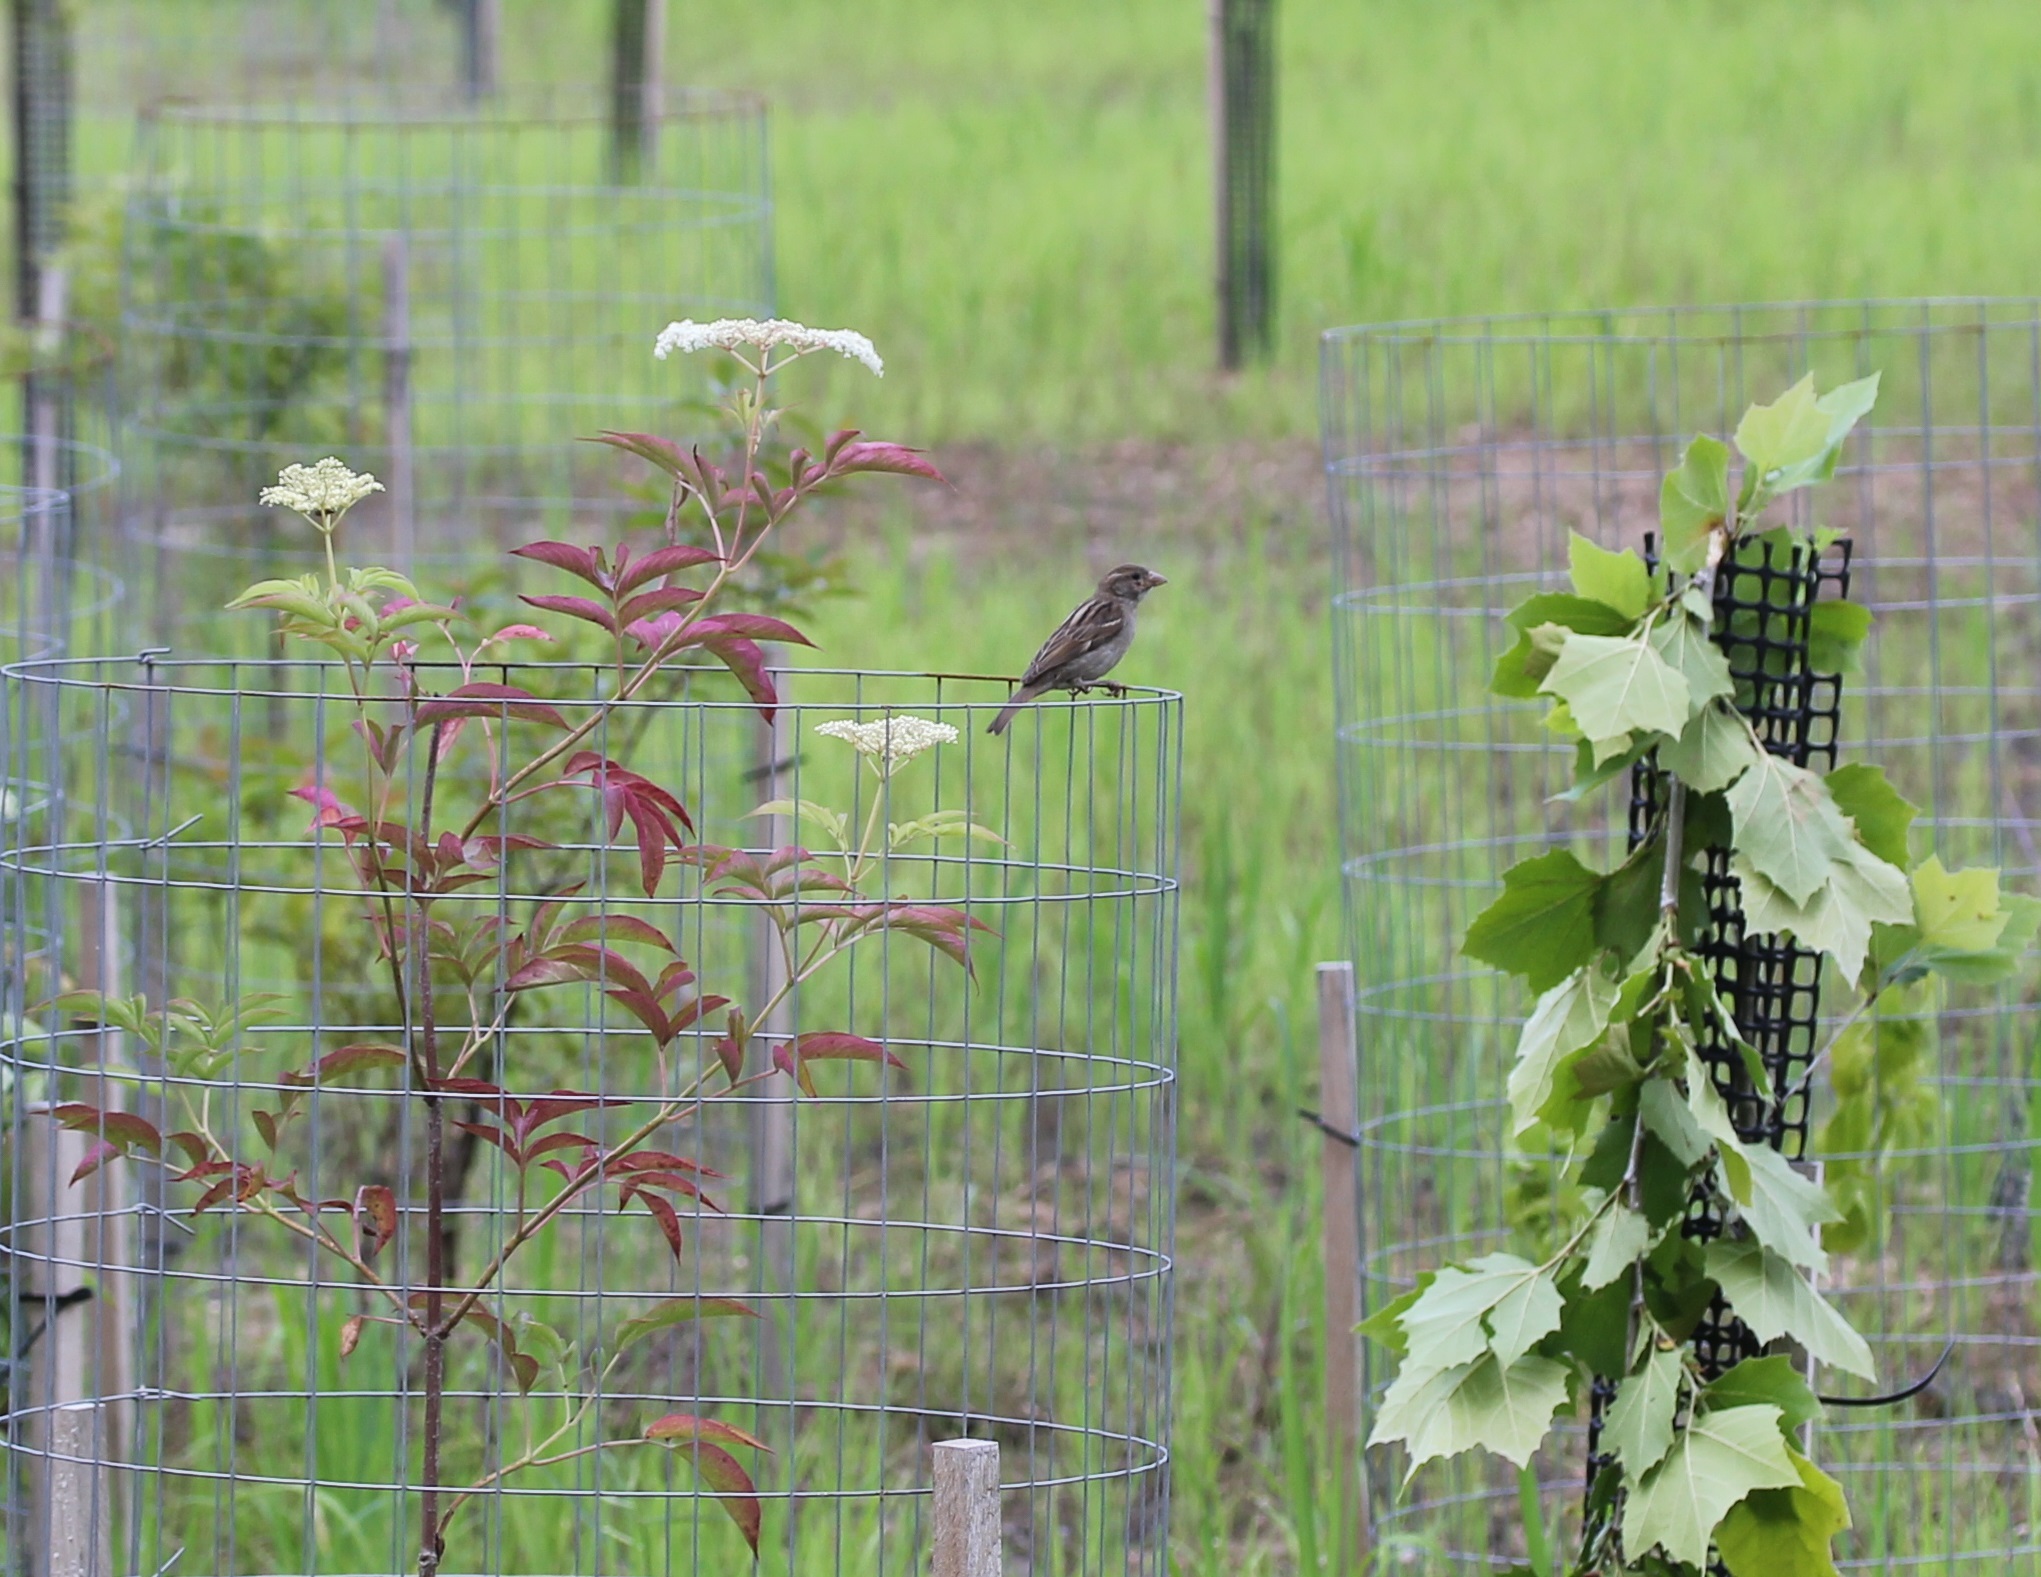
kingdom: Animalia
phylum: Chordata
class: Aves
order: Passeriformes
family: Passeridae
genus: Passer
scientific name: Passer domesticus
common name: House sparrow
